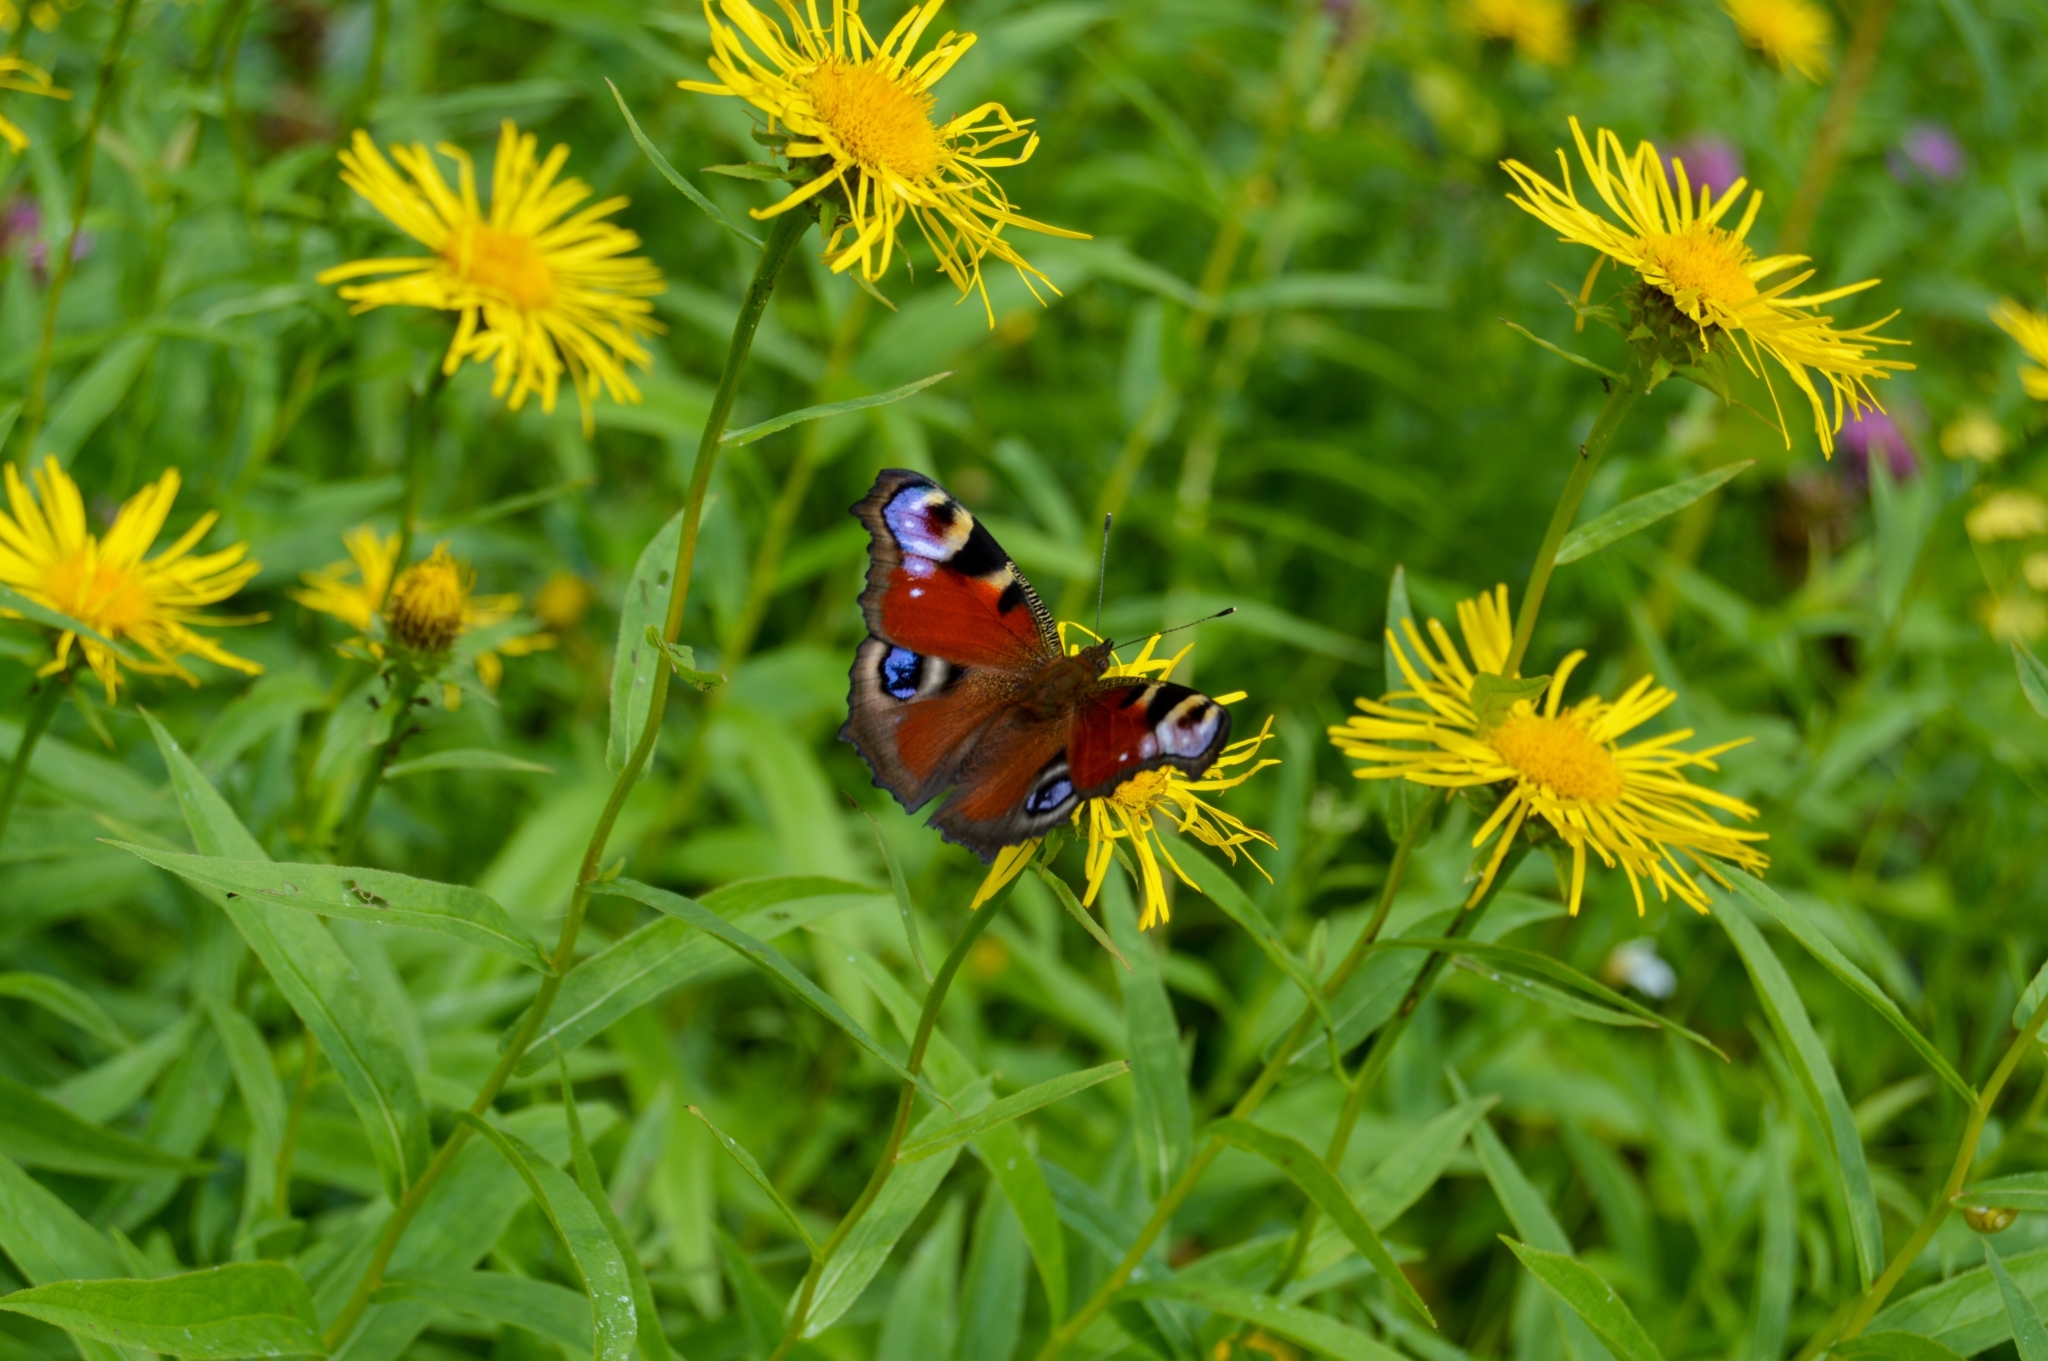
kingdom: Animalia
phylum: Arthropoda
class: Insecta
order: Lepidoptera
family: Nymphalidae
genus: Aglais
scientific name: Aglais io
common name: Peacock
